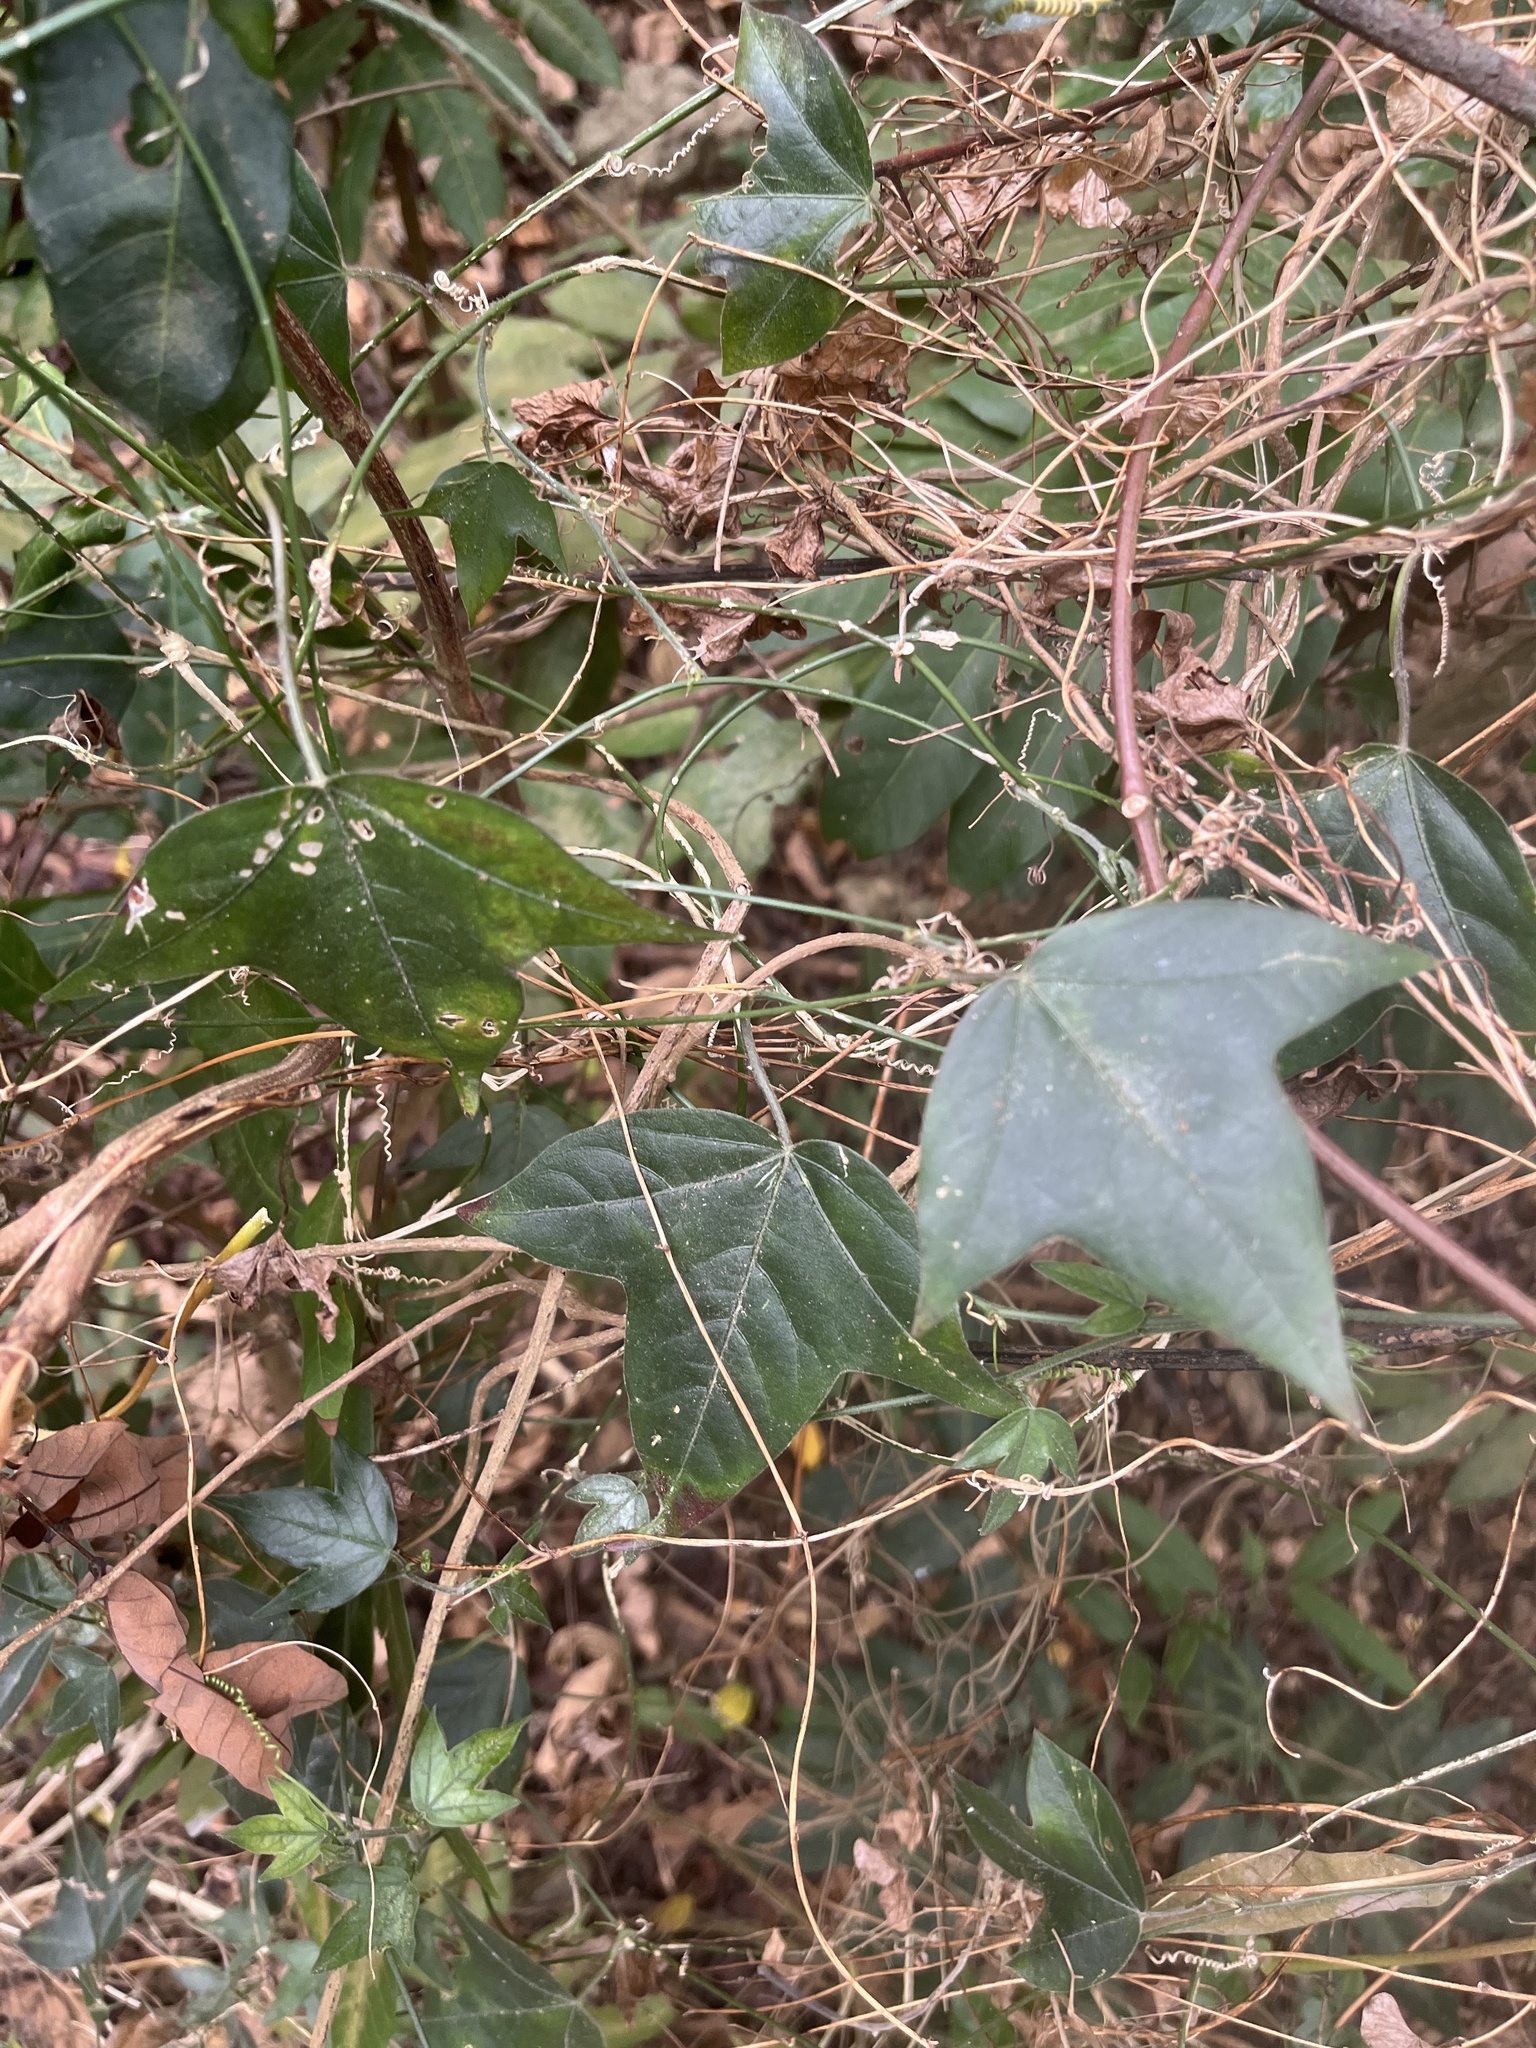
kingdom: Plantae
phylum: Tracheophyta
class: Magnoliopsida
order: Malpighiales
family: Passifloraceae
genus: Passiflora
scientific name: Passiflora suberosa
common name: Wild passionfruit
